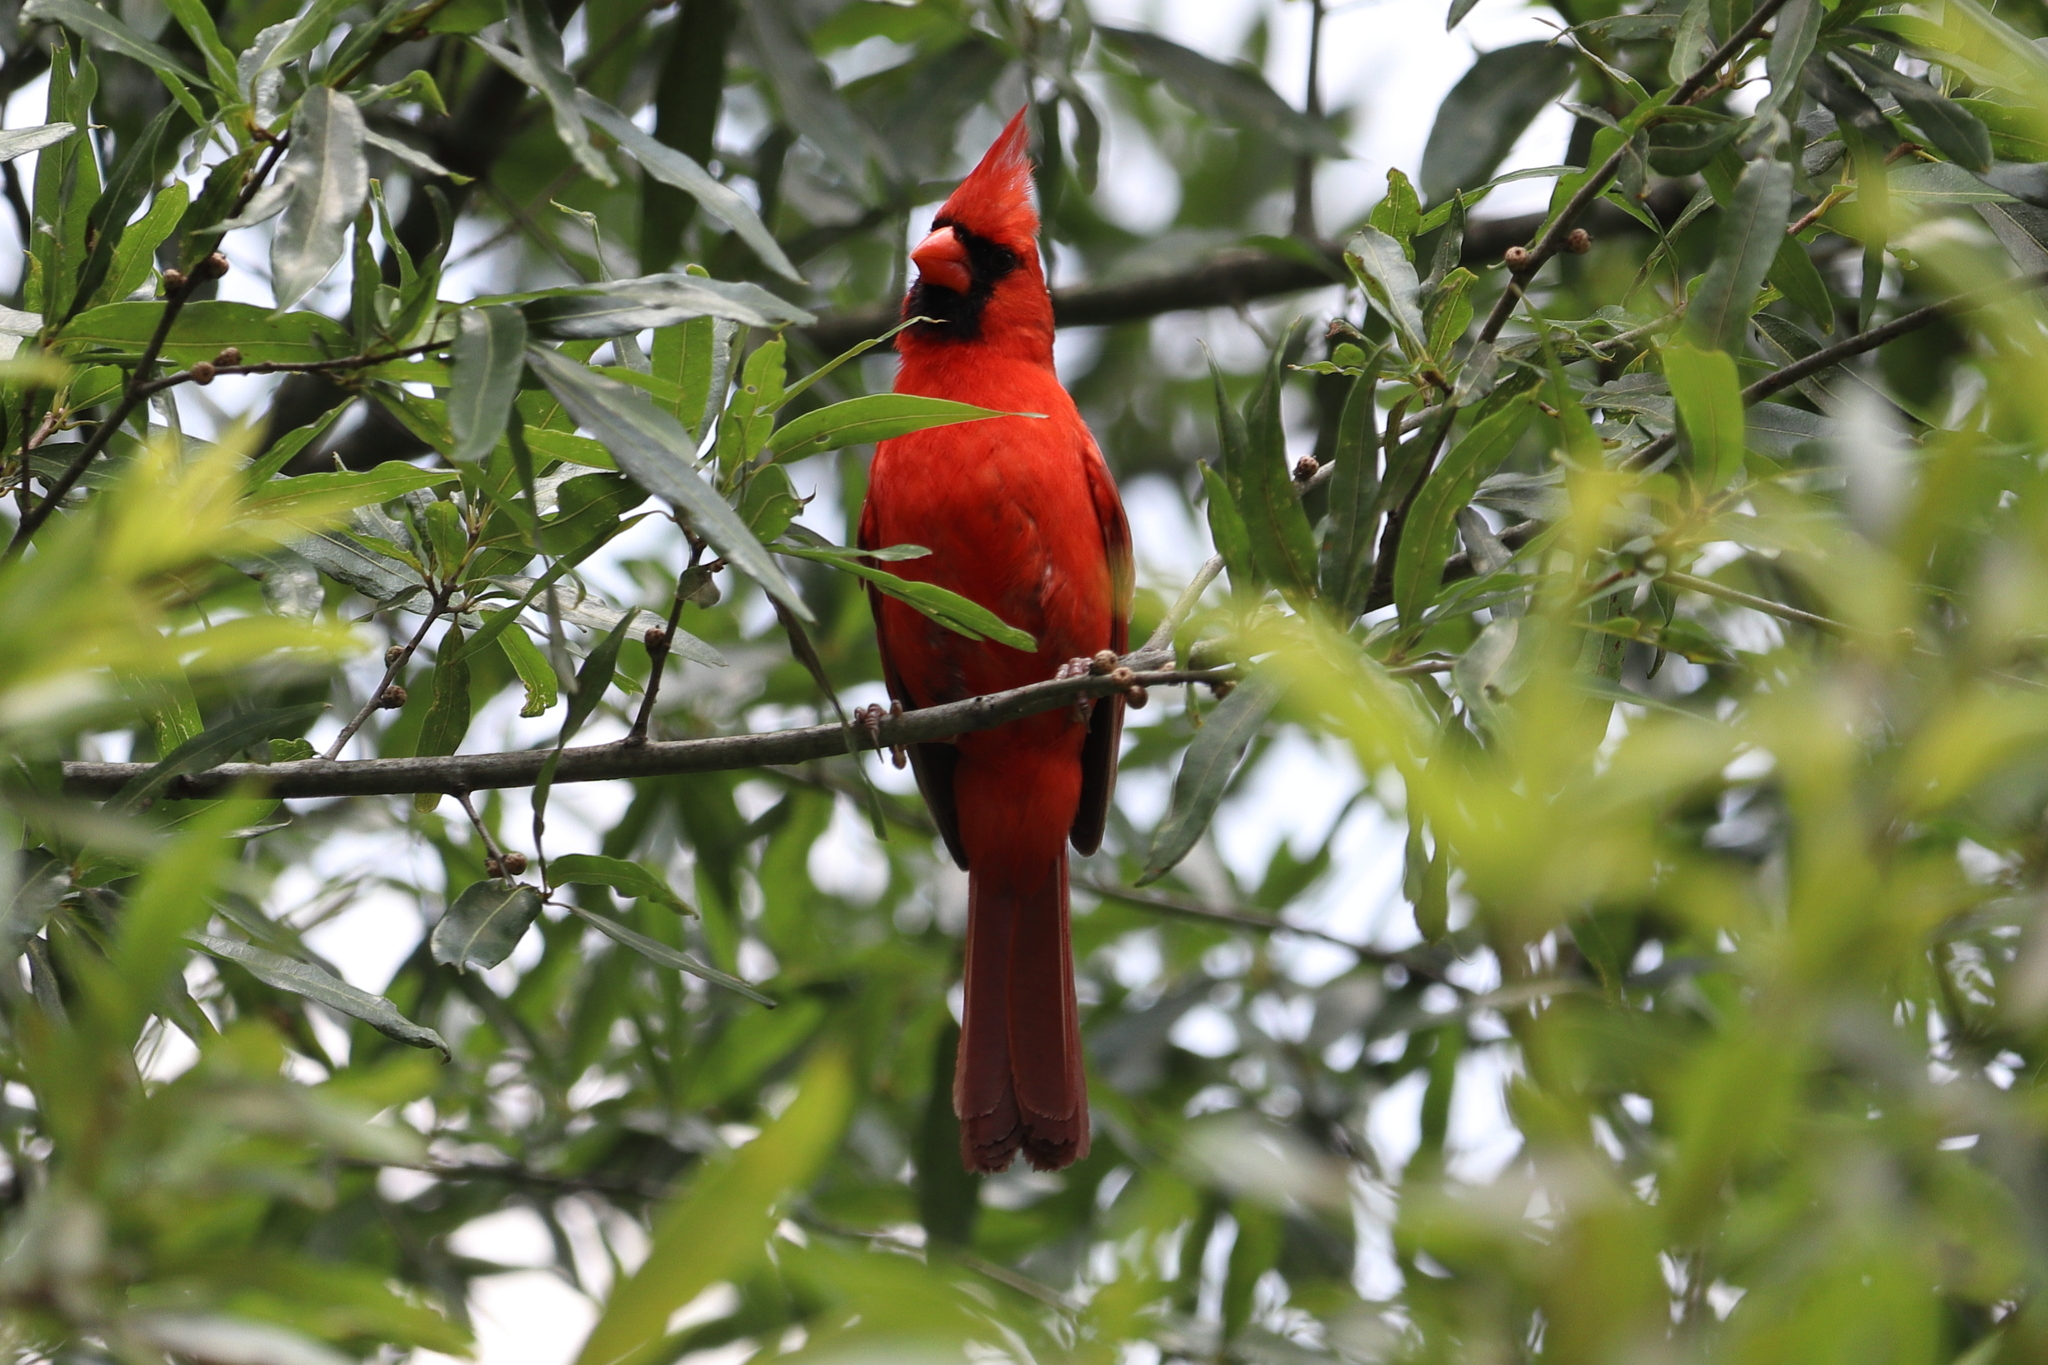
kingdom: Animalia
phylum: Chordata
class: Aves
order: Passeriformes
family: Cardinalidae
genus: Cardinalis
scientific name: Cardinalis cardinalis
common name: Northern cardinal
